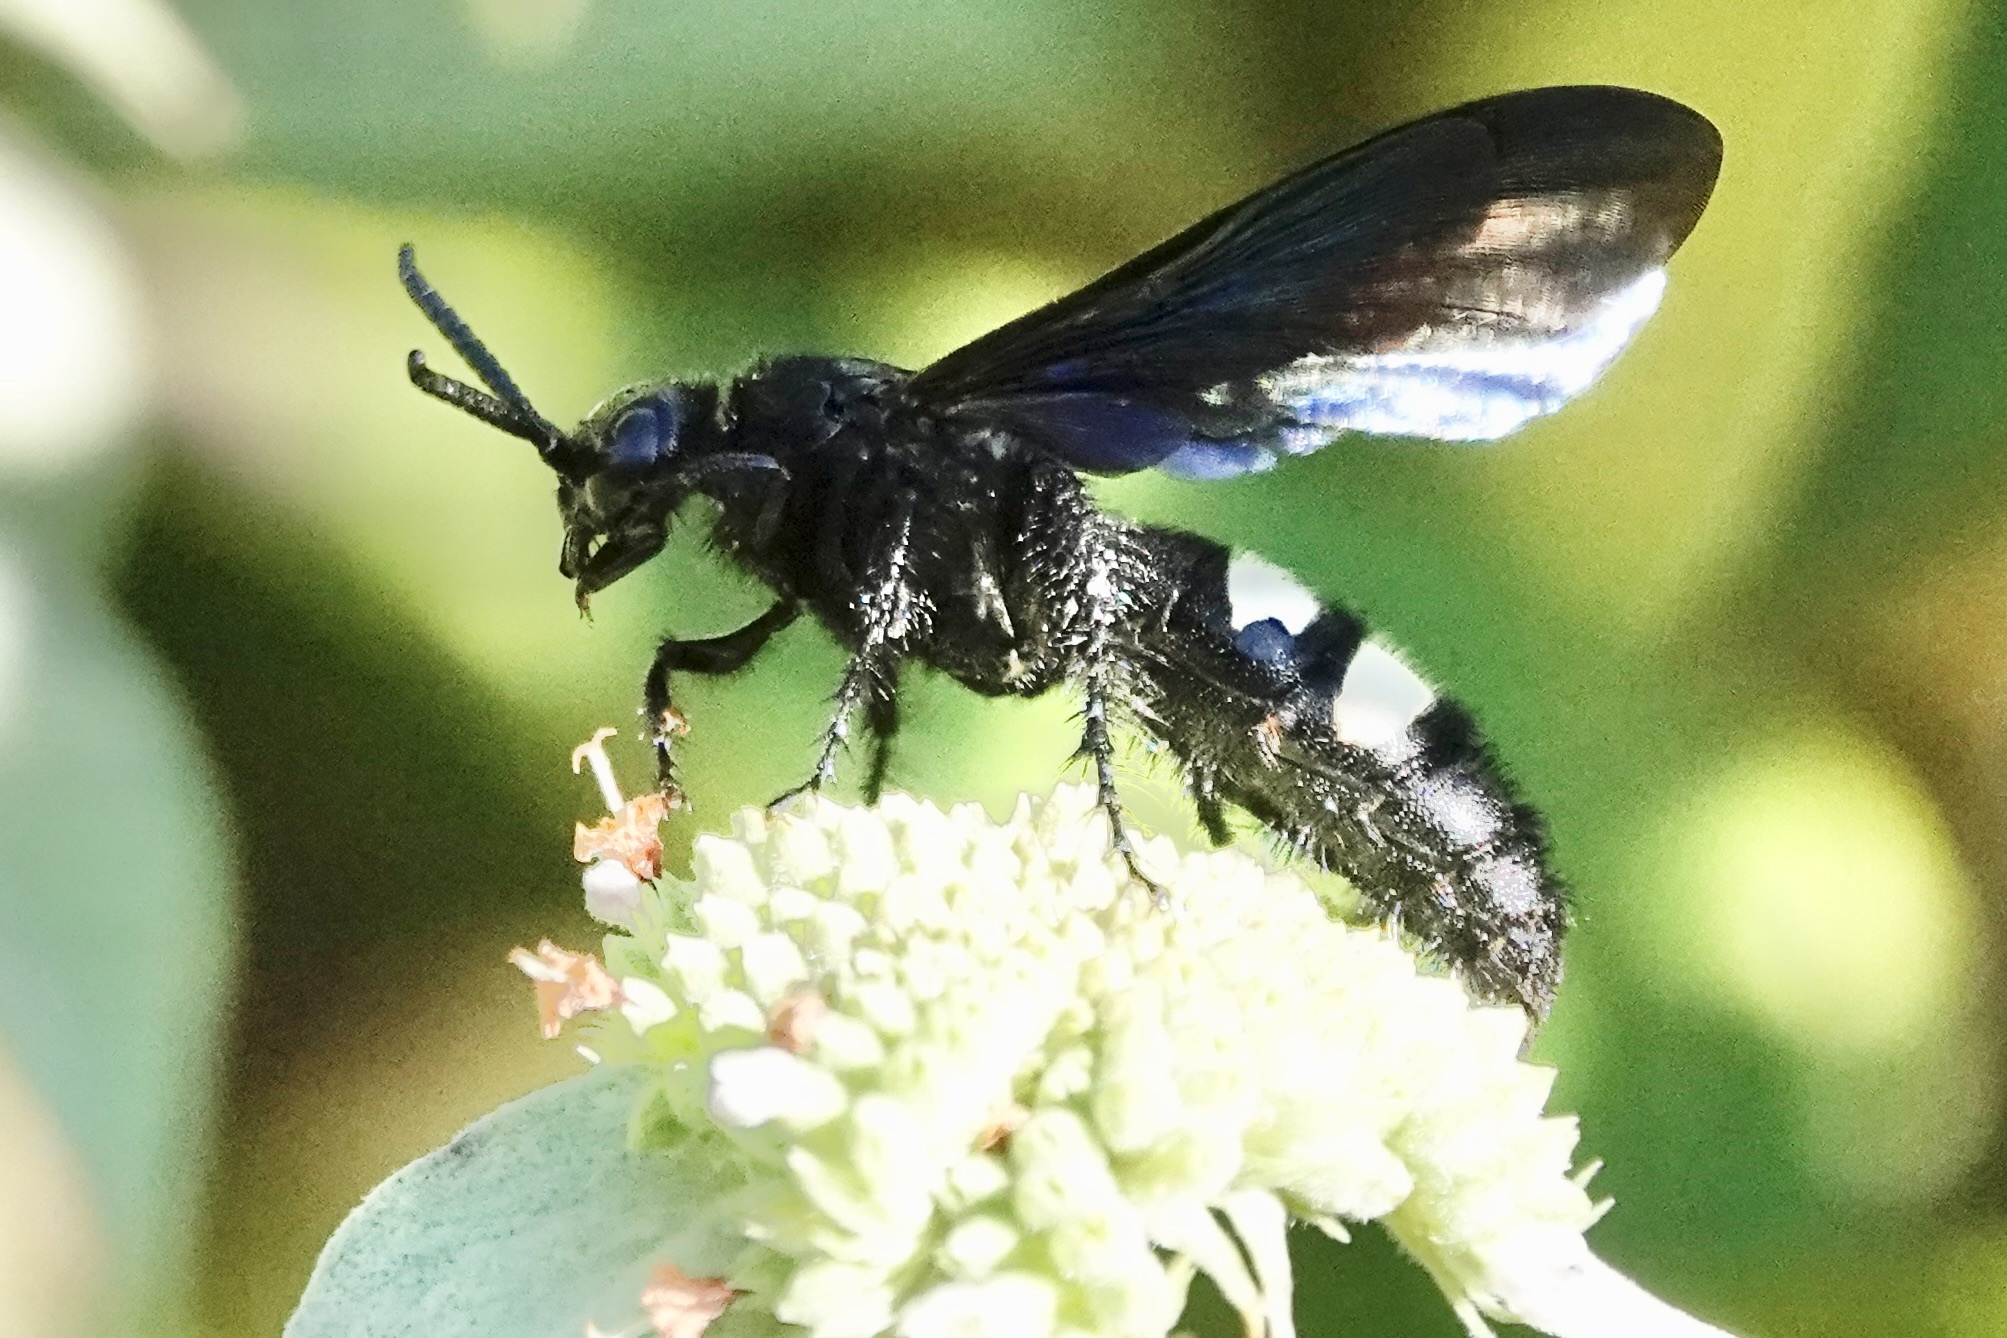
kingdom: Animalia
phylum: Arthropoda
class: Insecta
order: Hymenoptera
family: Scoliidae
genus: Scolia
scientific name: Scolia bicincta
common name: Double-banded scoliid wasp
